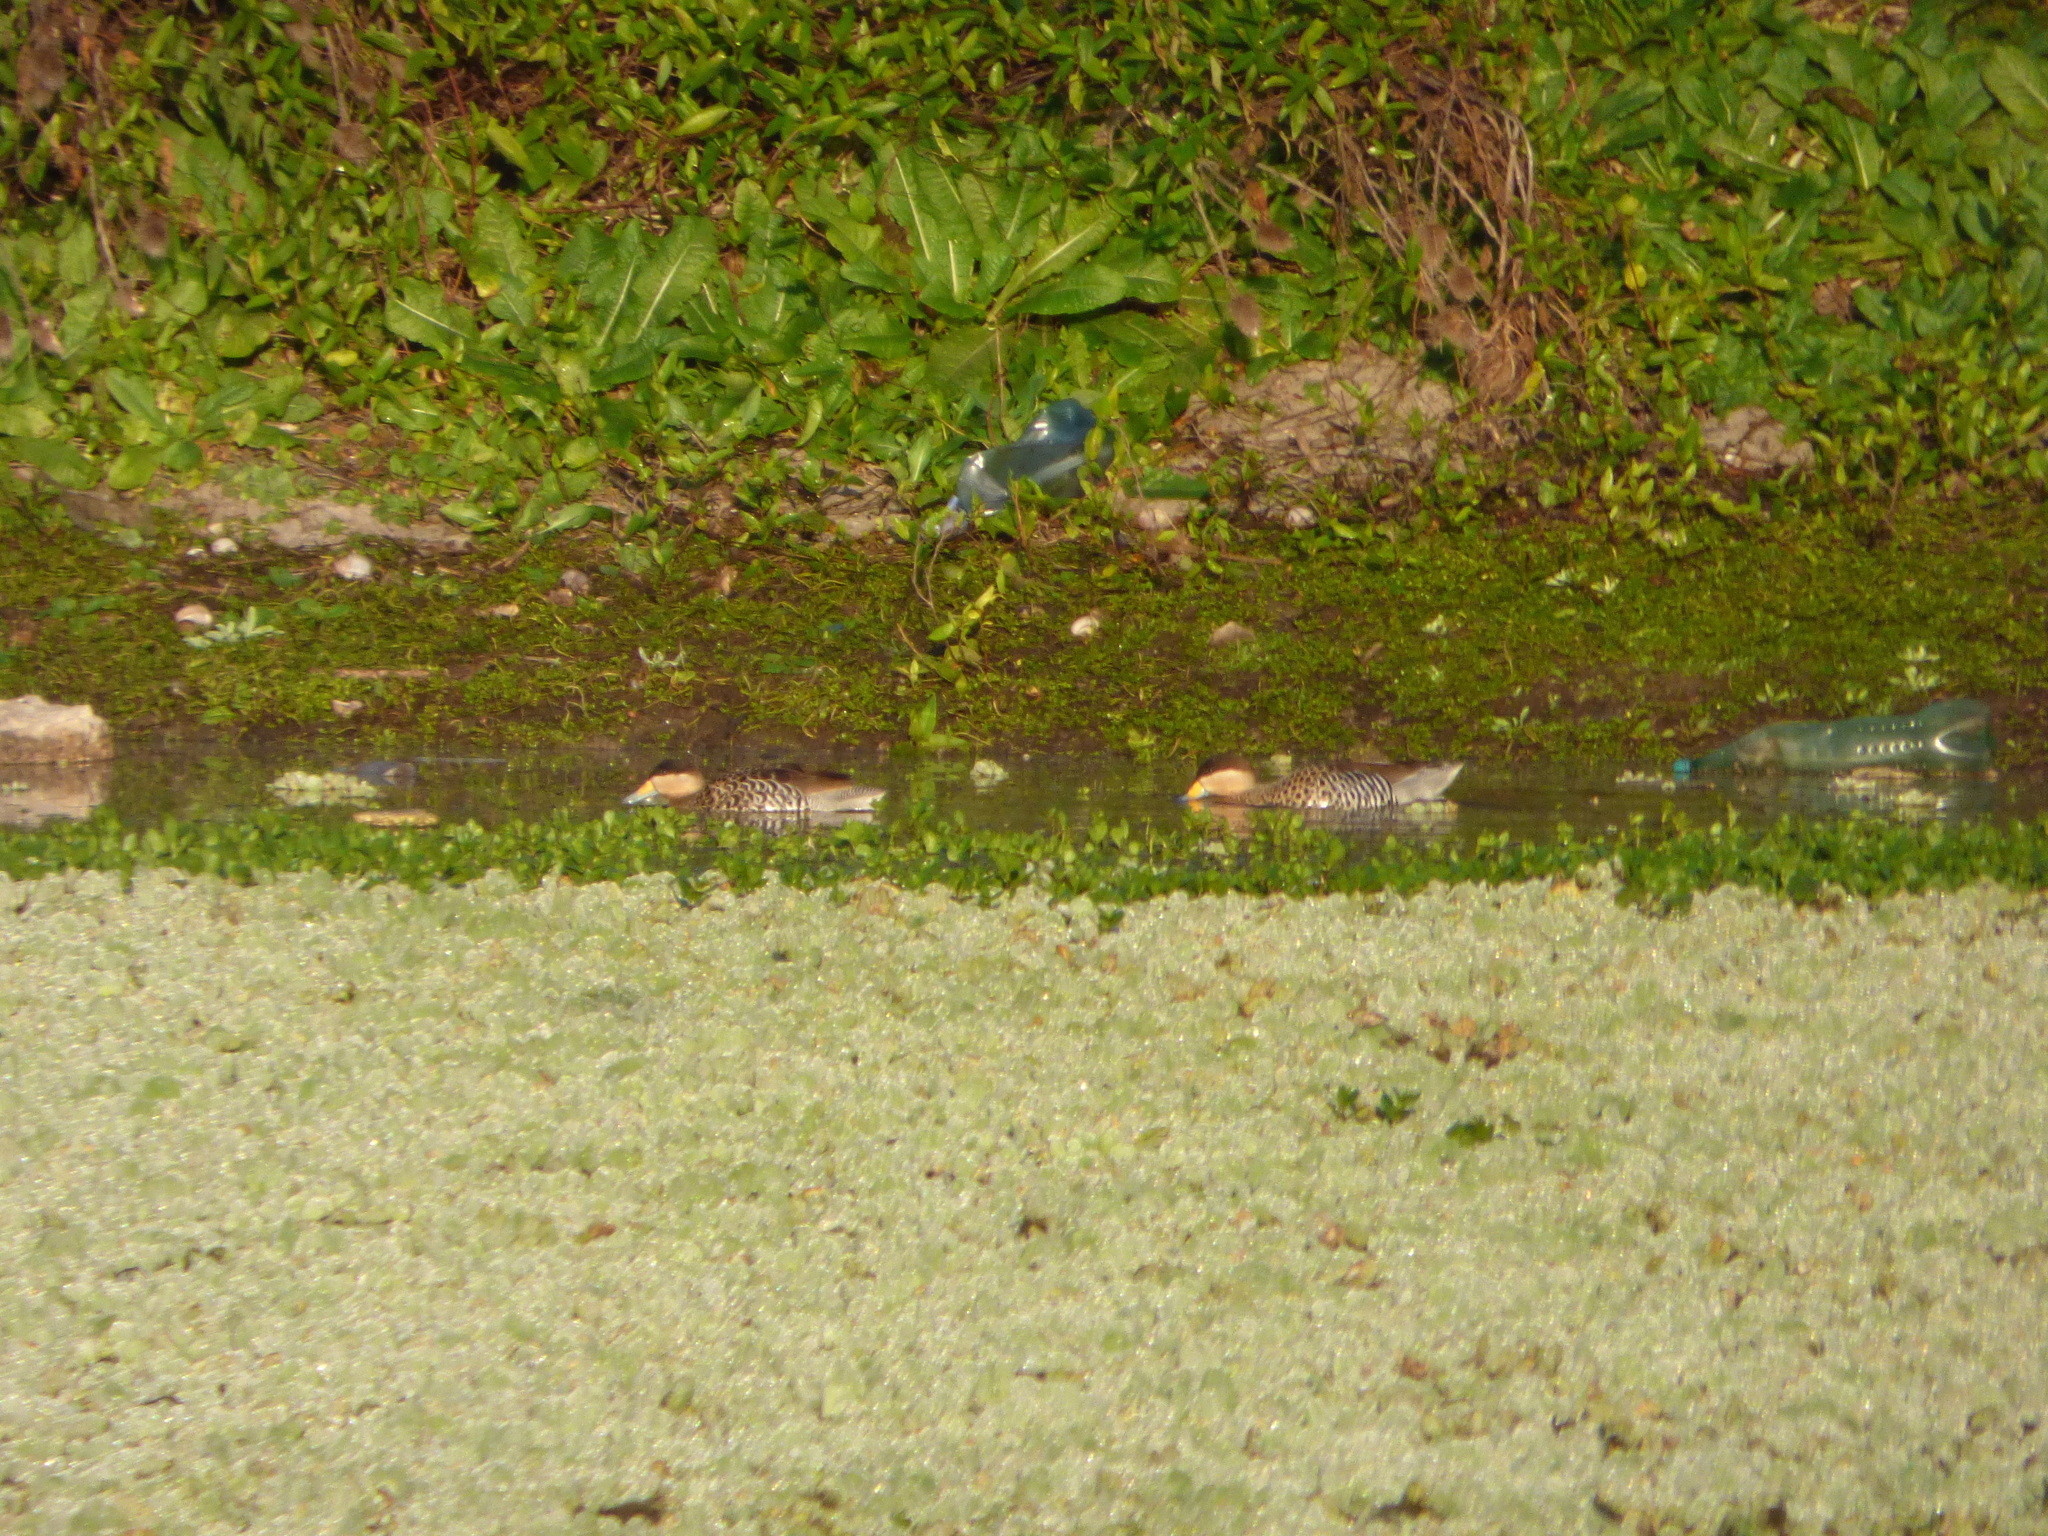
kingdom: Animalia
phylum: Chordata
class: Aves
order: Anseriformes
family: Anatidae
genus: Spatula
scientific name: Spatula versicolor
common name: Silver teal
